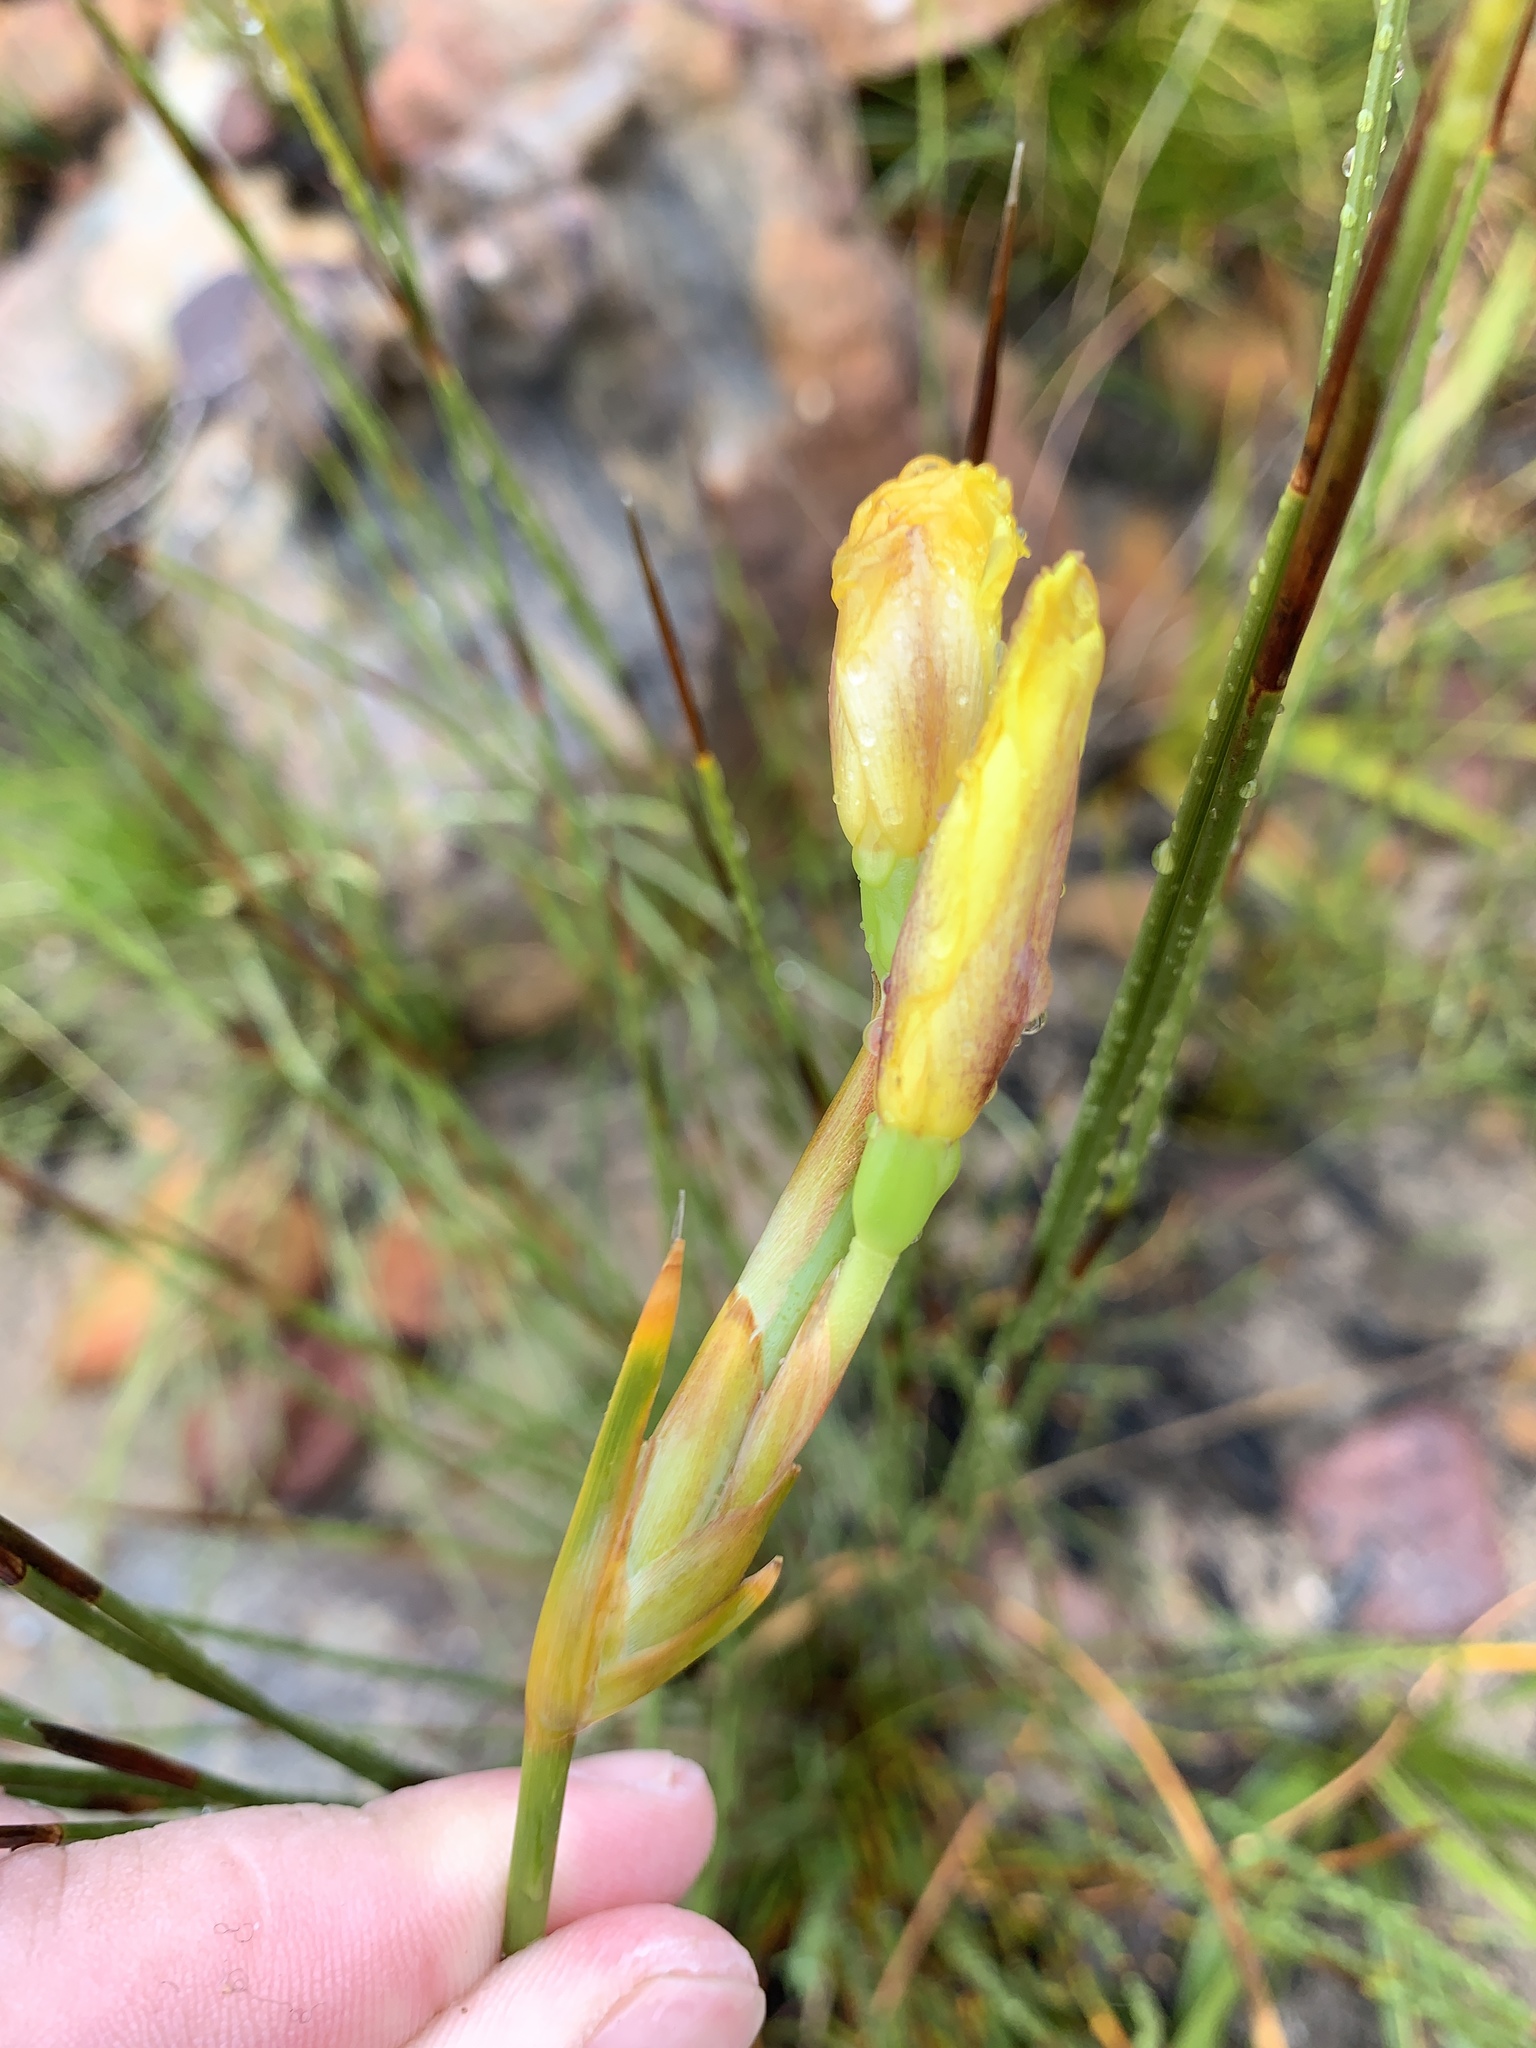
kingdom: Plantae
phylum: Tracheophyta
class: Liliopsida
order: Asparagales
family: Iridaceae
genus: Bobartia
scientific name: Bobartia filiformis
